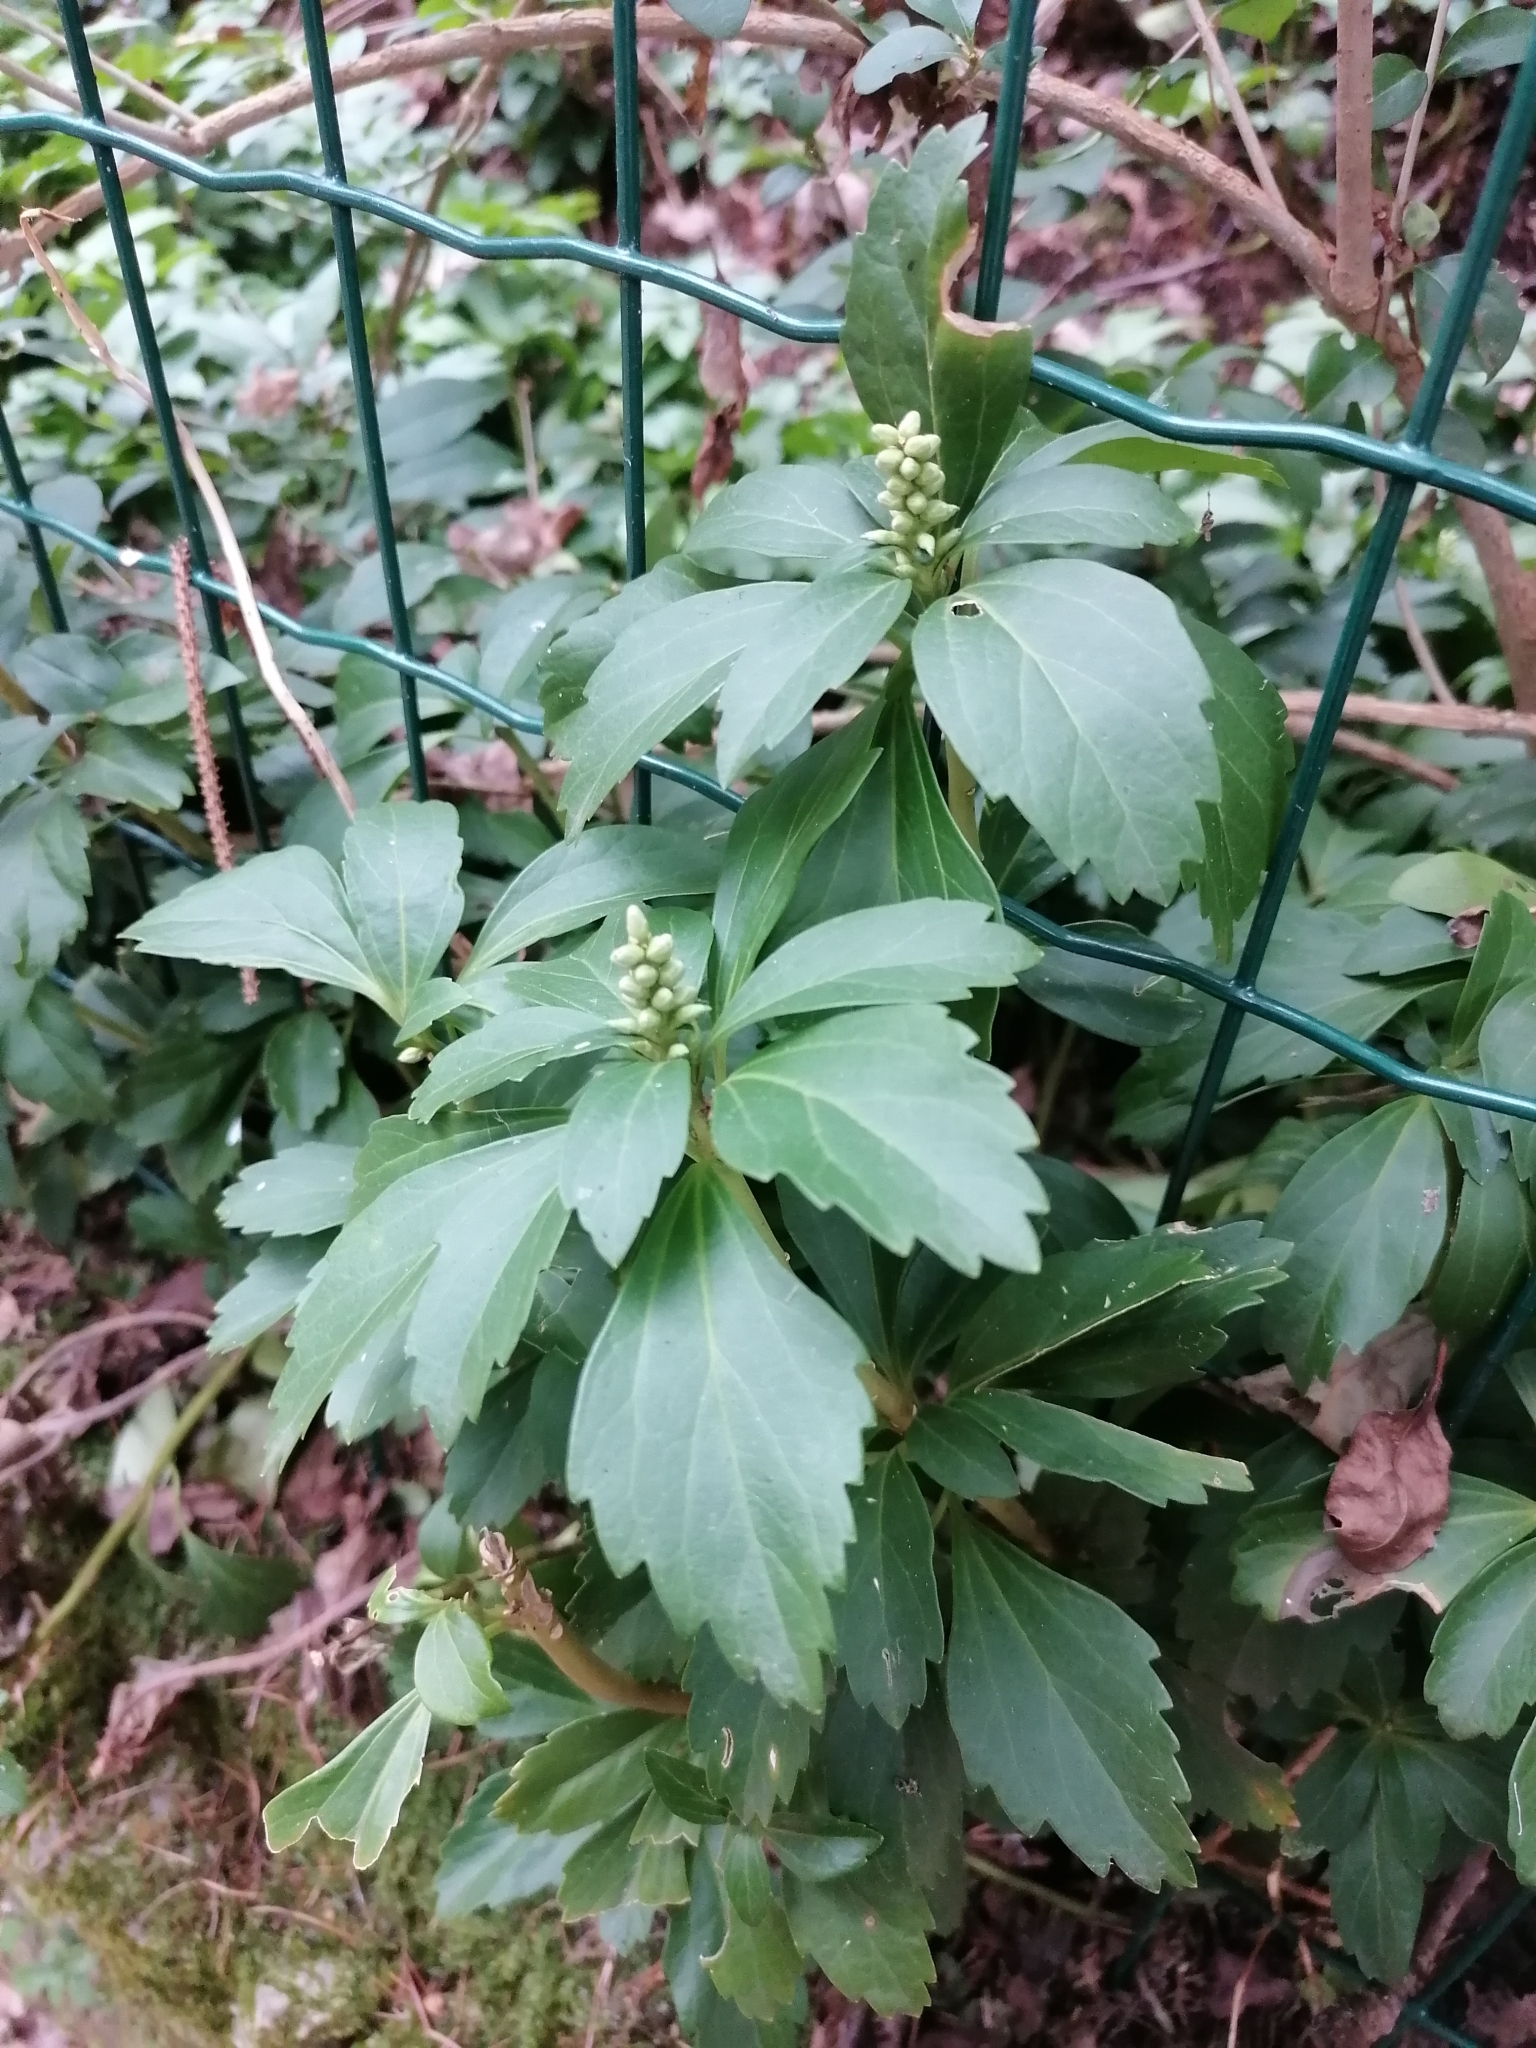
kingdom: Plantae
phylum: Tracheophyta
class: Magnoliopsida
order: Buxales
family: Buxaceae
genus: Pachysandra
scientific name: Pachysandra terminalis
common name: Japanese pachysandra
